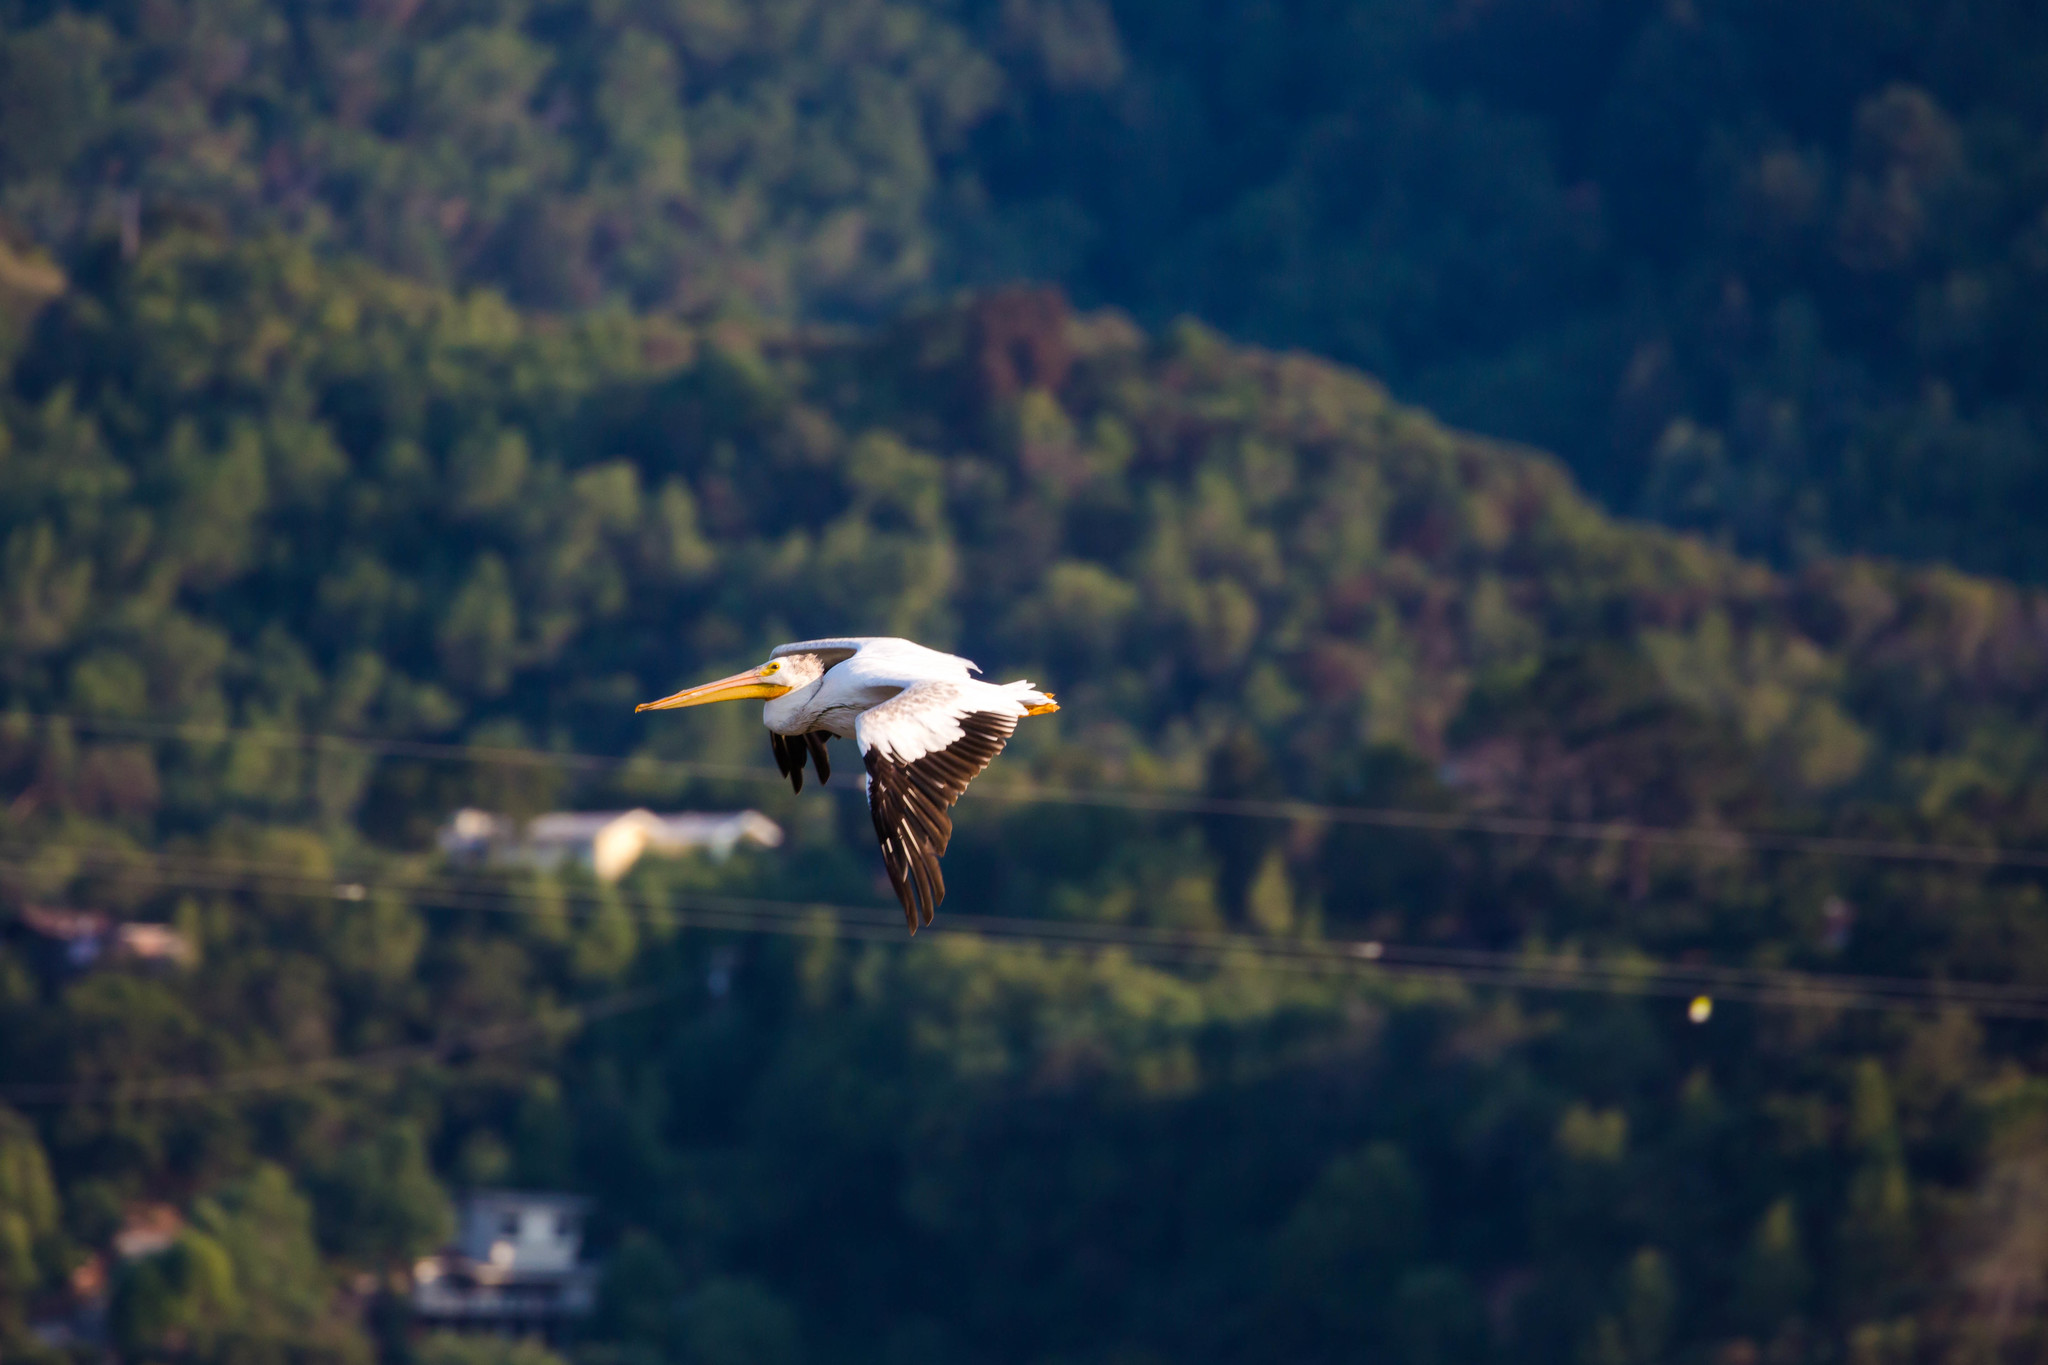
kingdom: Animalia
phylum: Chordata
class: Aves
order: Pelecaniformes
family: Pelecanidae
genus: Pelecanus
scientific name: Pelecanus erythrorhynchos
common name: American white pelican
